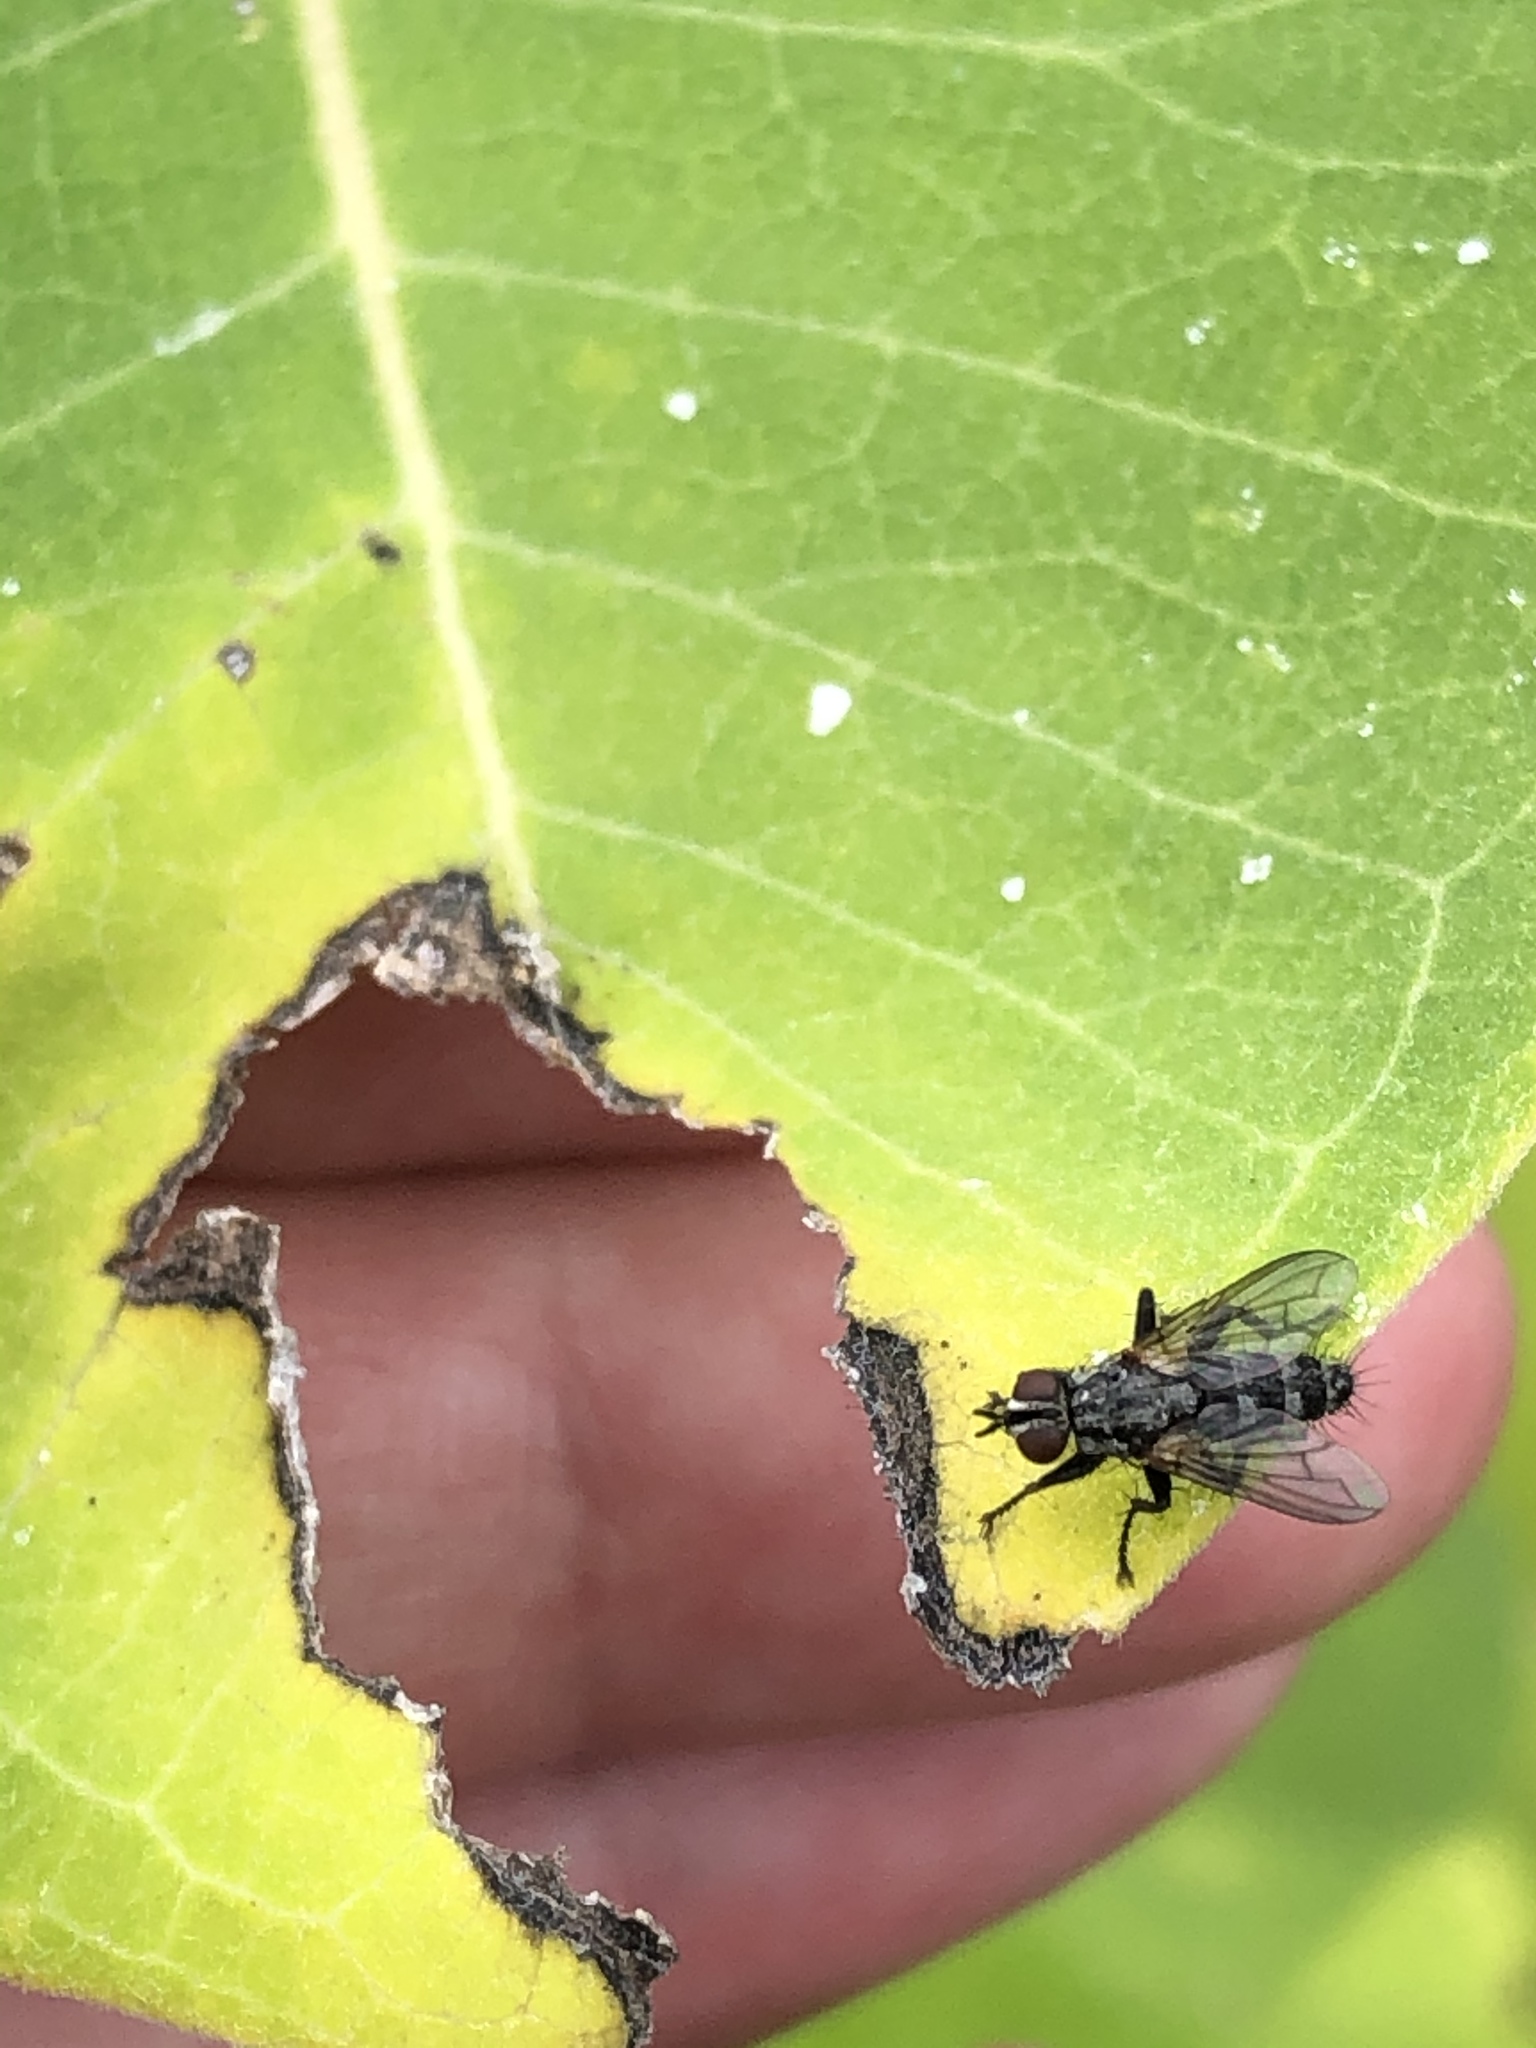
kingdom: Animalia
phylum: Arthropoda
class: Insecta
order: Diptera
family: Calliphoridae
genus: Stevenia
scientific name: Stevenia deceptoria
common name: Grizzled woodlouse-fly
